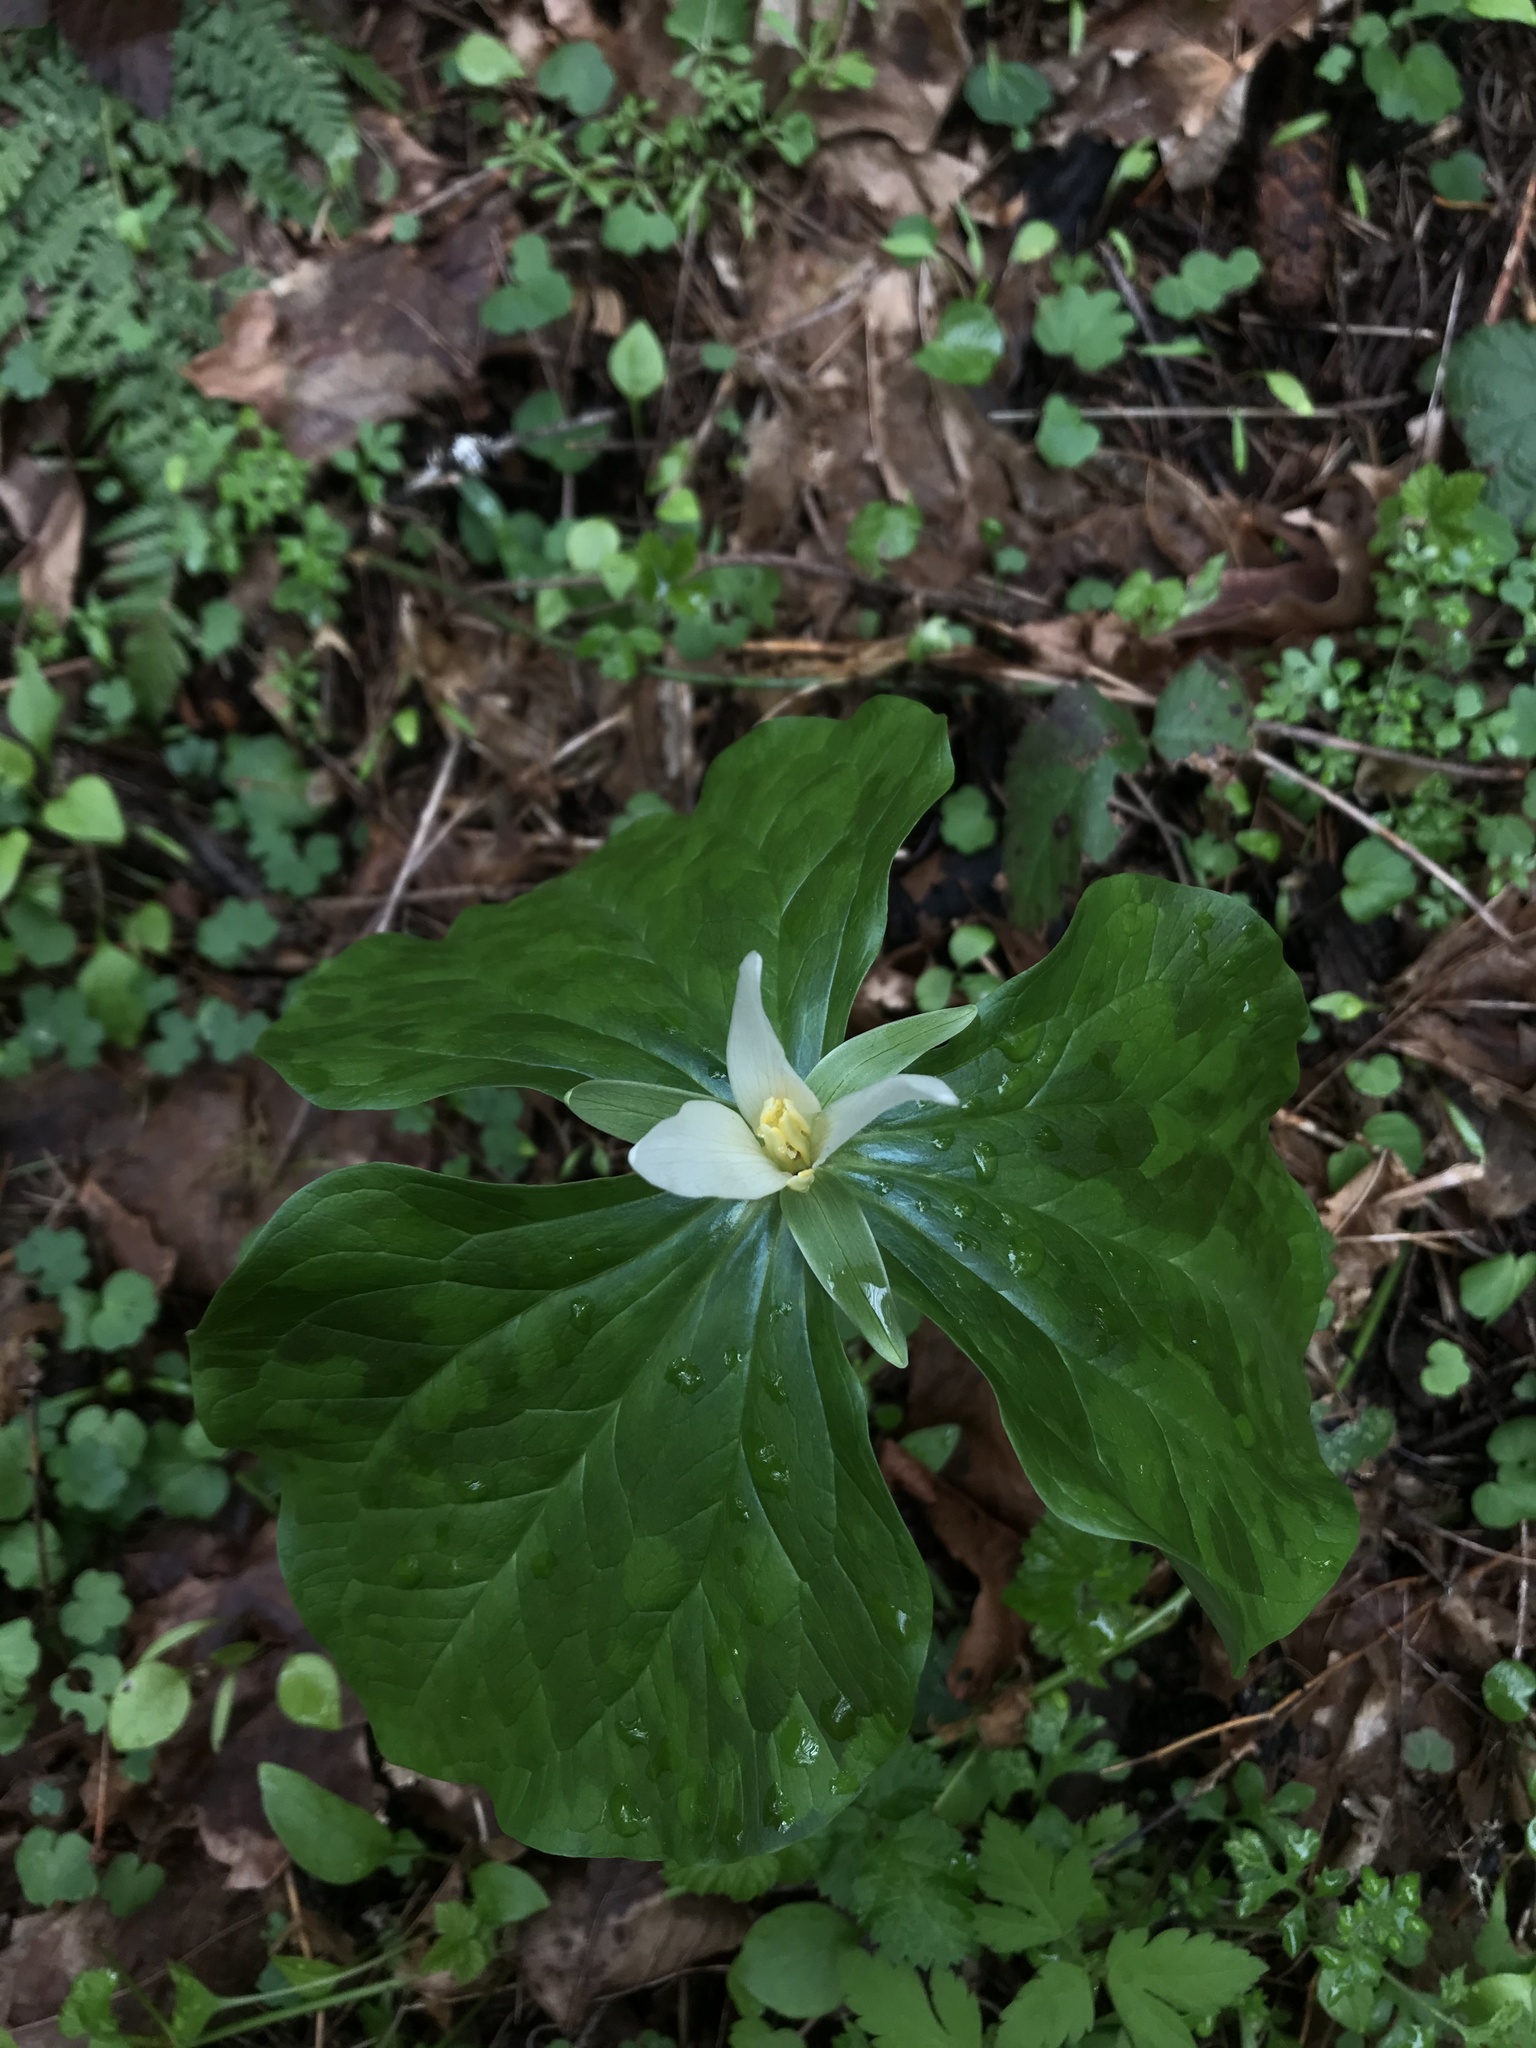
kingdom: Plantae
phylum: Tracheophyta
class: Liliopsida
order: Liliales
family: Melanthiaceae
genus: Trillium
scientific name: Trillium albidum
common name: Freeman's trillium
